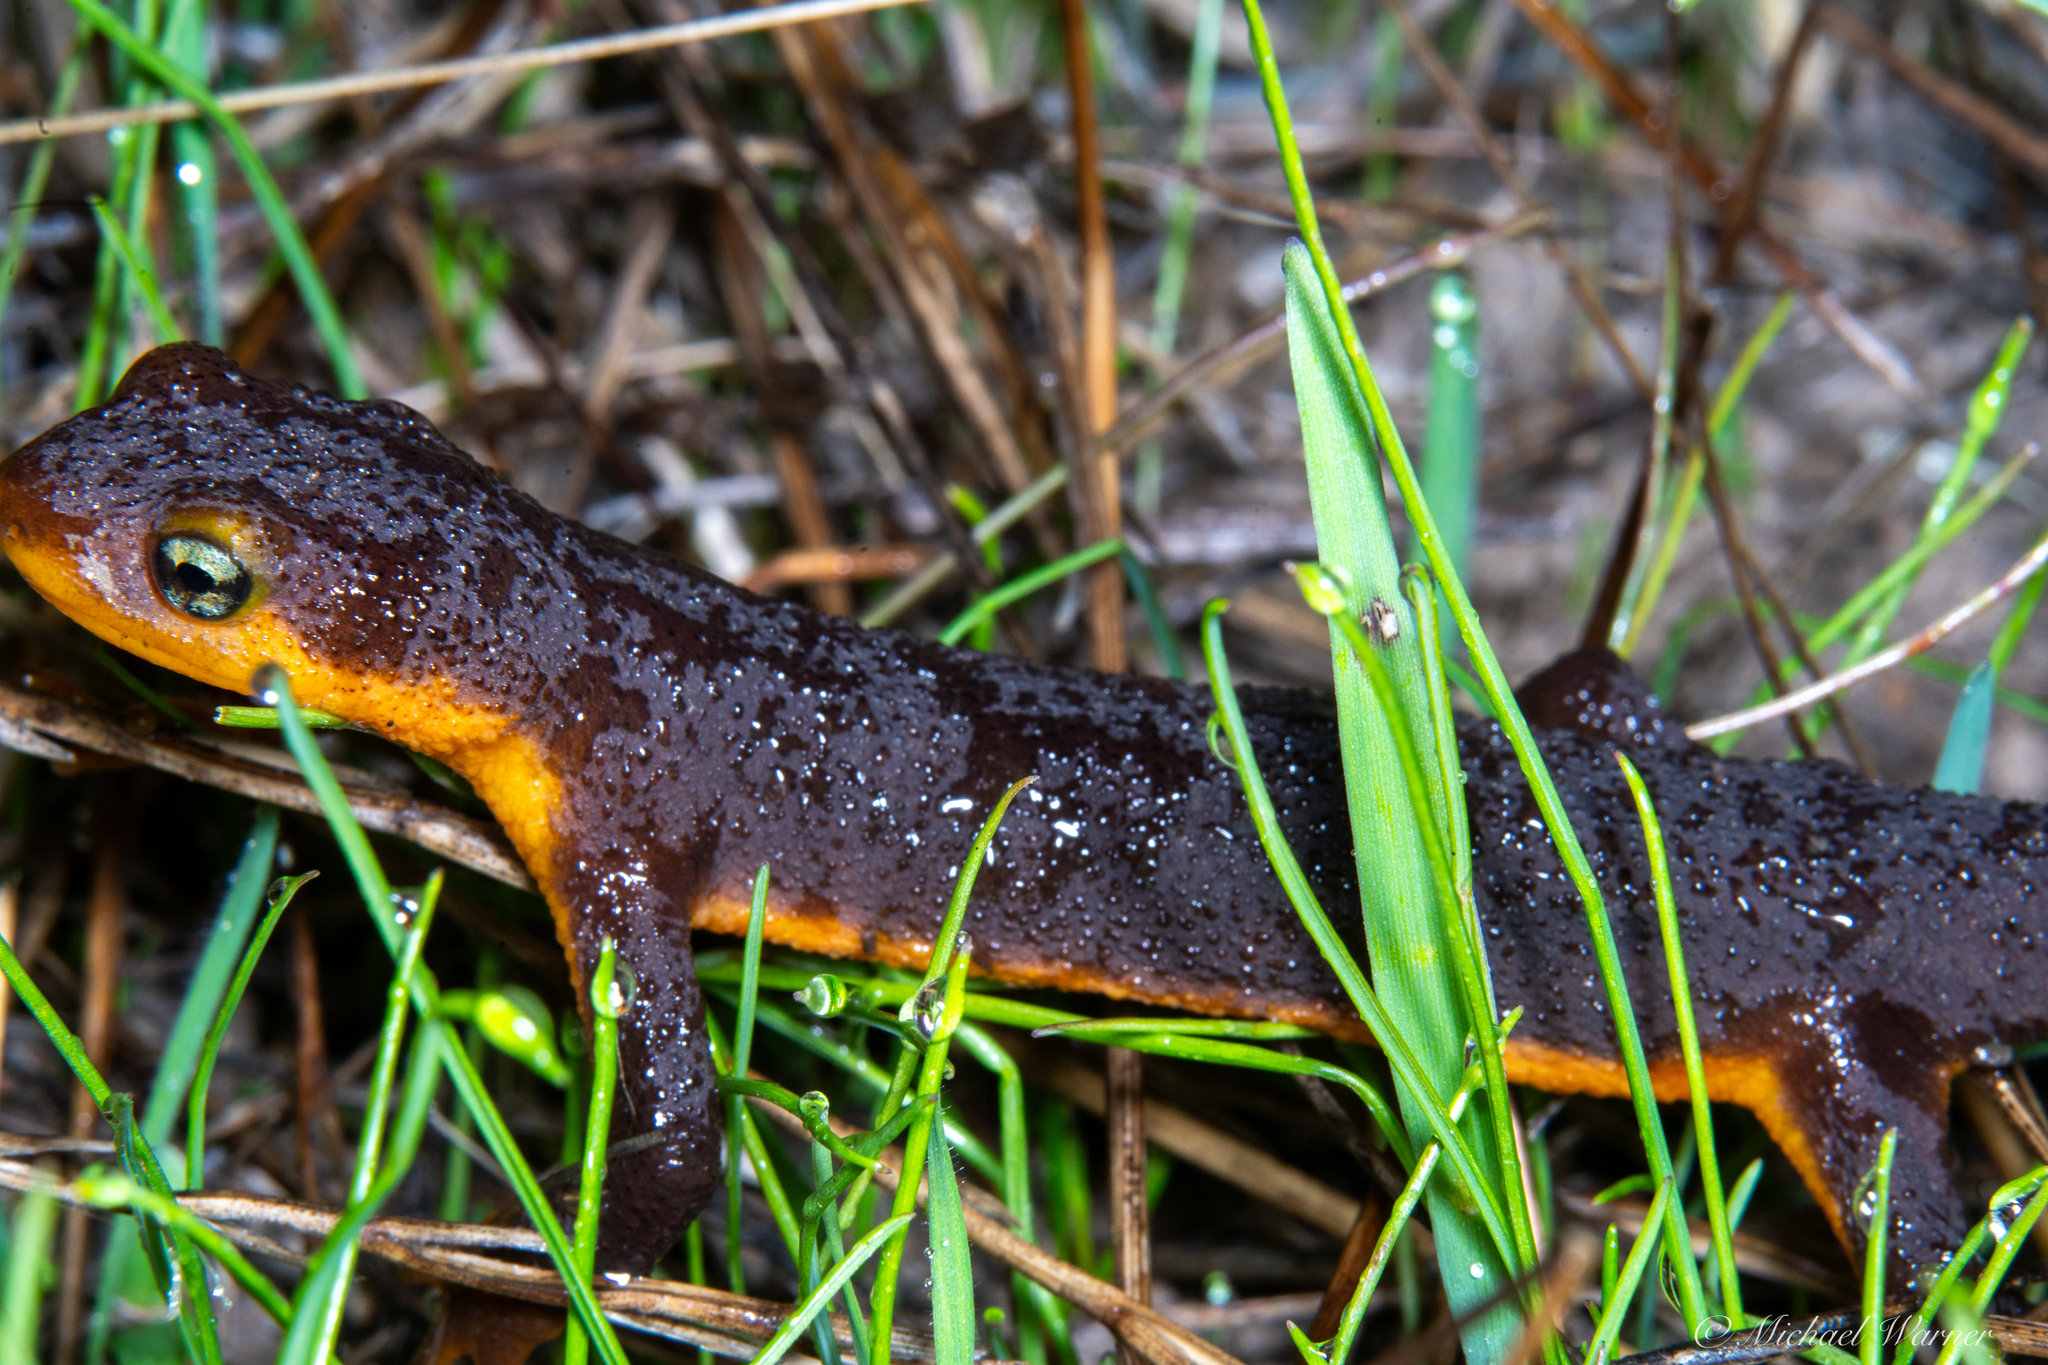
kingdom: Animalia
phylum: Chordata
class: Amphibia
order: Caudata
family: Salamandridae
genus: Taricha
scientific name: Taricha torosa
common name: California newt
